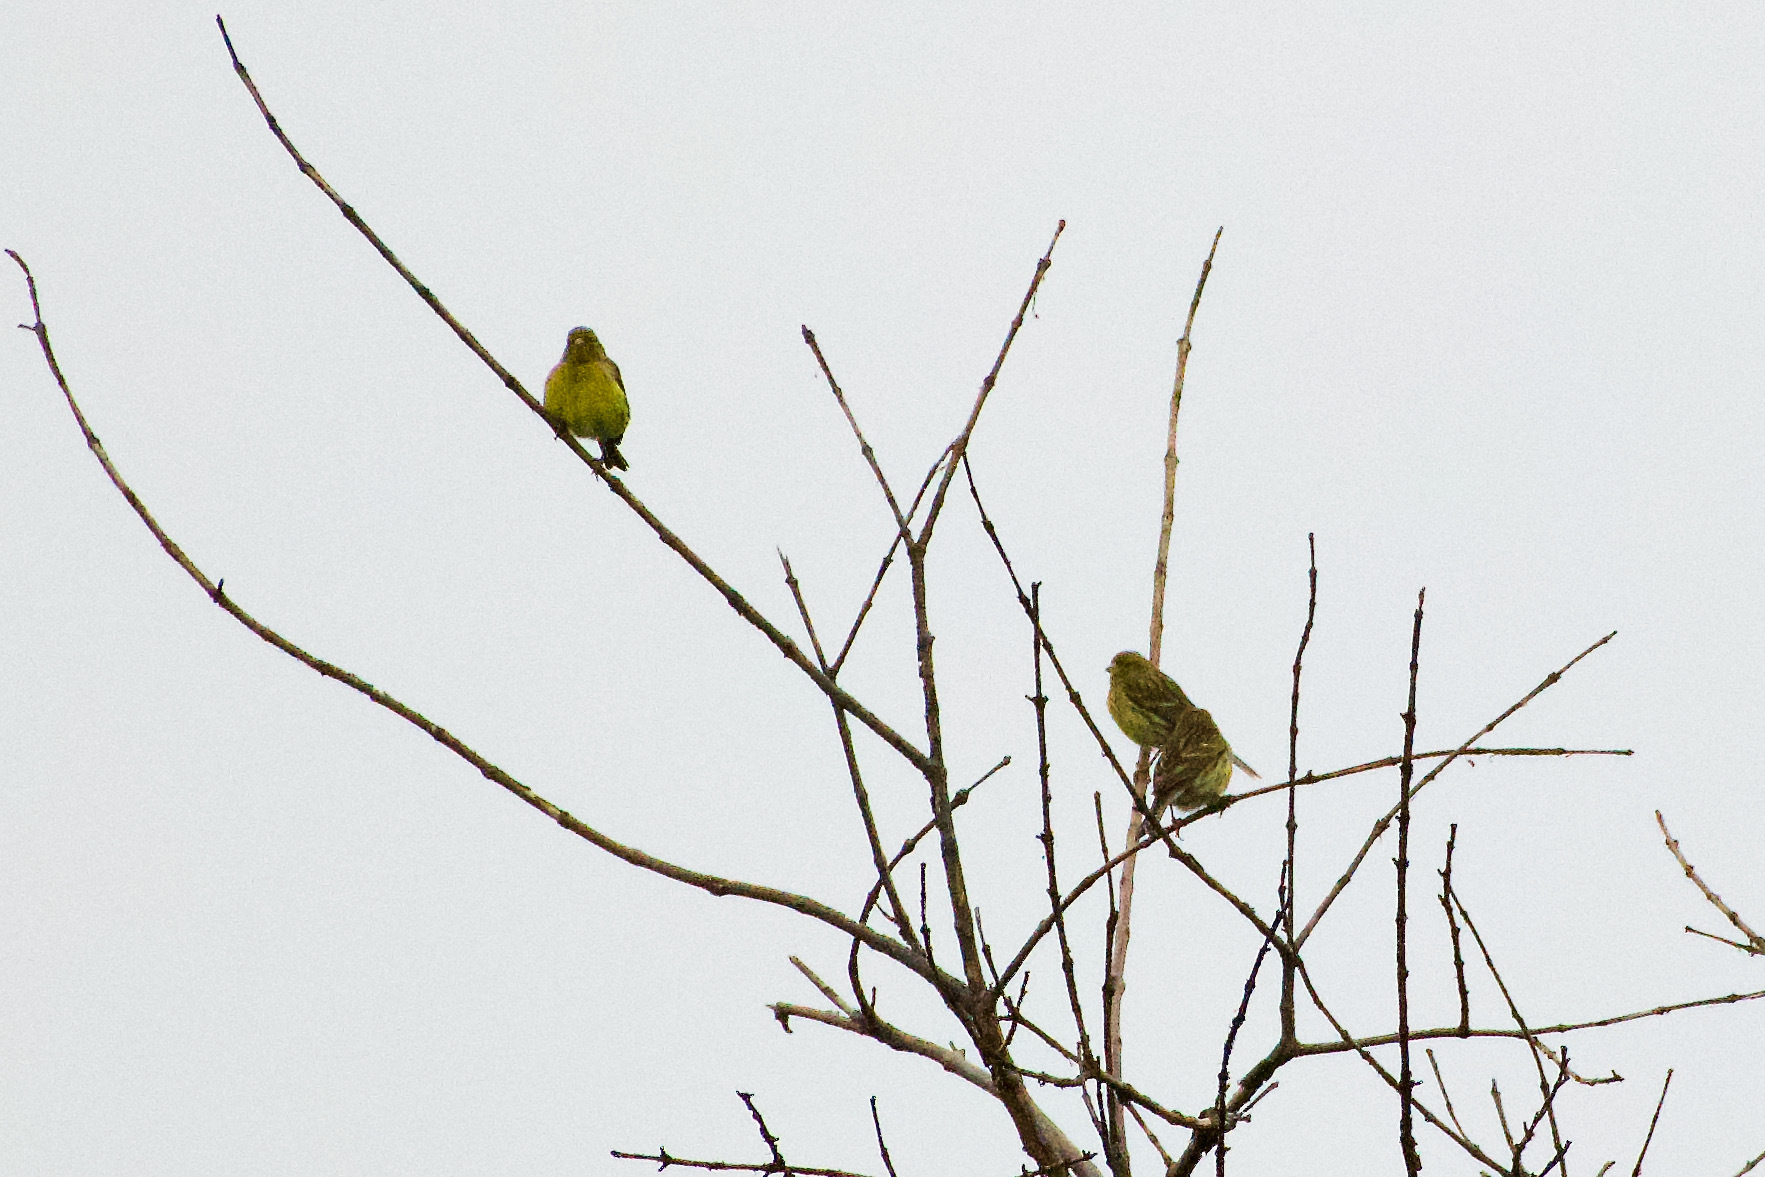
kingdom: Animalia
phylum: Chordata
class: Aves
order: Passeriformes
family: Fringillidae
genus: Serinus
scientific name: Serinus canaria
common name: Atlantic canary
